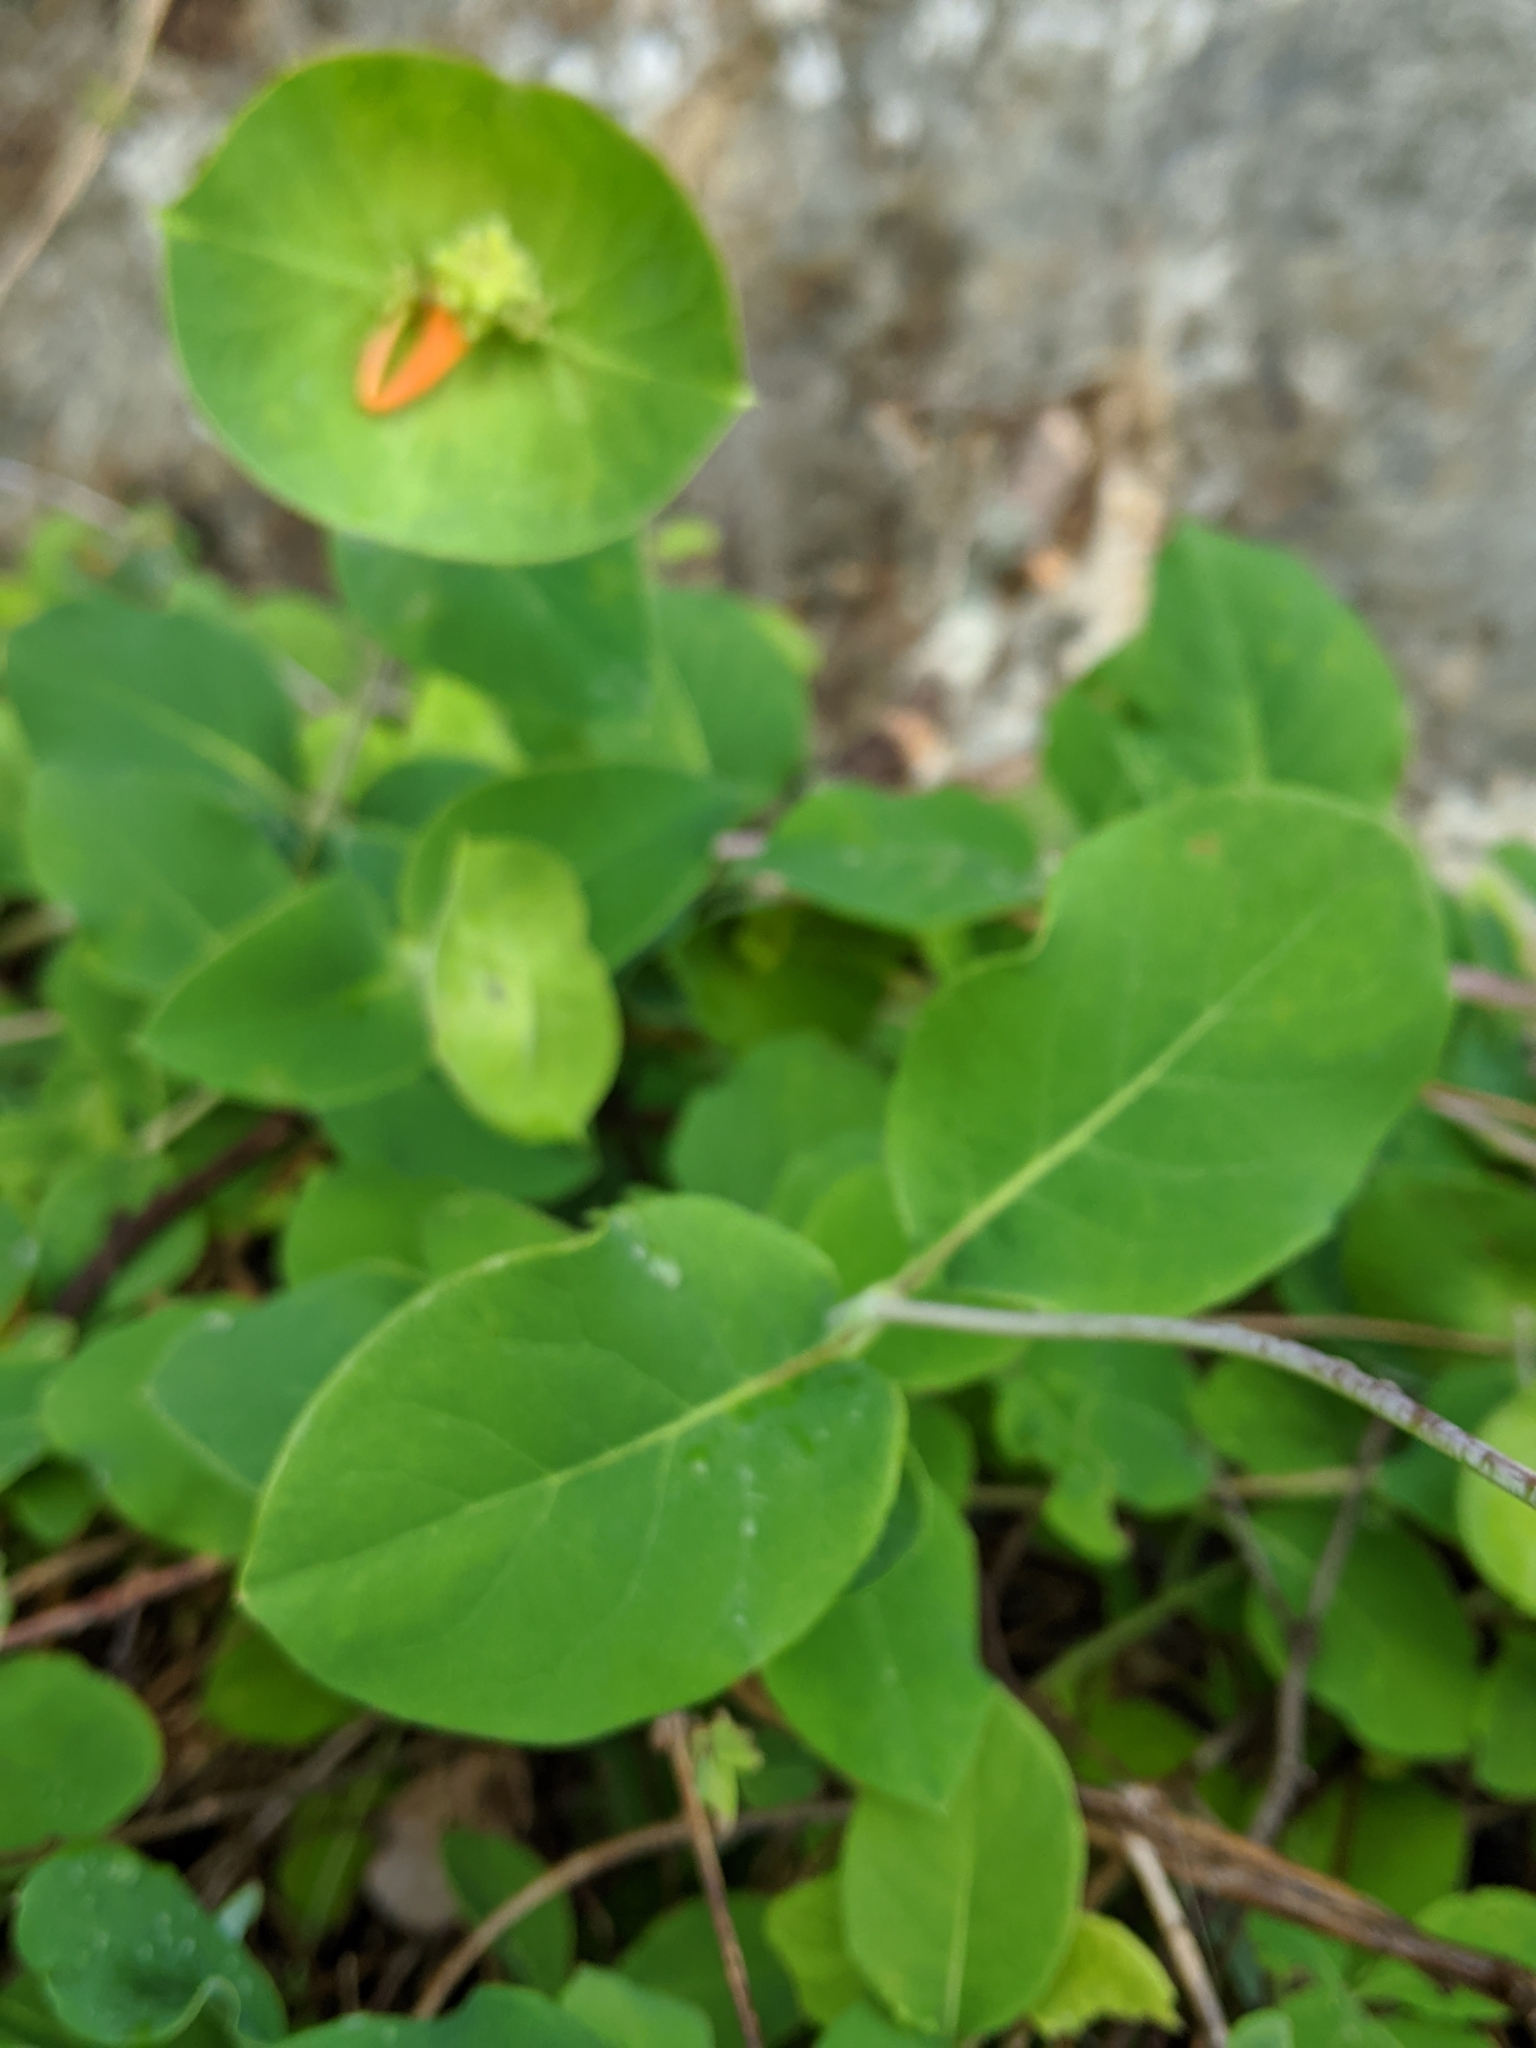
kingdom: Plantae
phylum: Tracheophyta
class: Magnoliopsida
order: Dipsacales
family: Caprifoliaceae
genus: Lonicera
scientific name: Lonicera ciliosa
